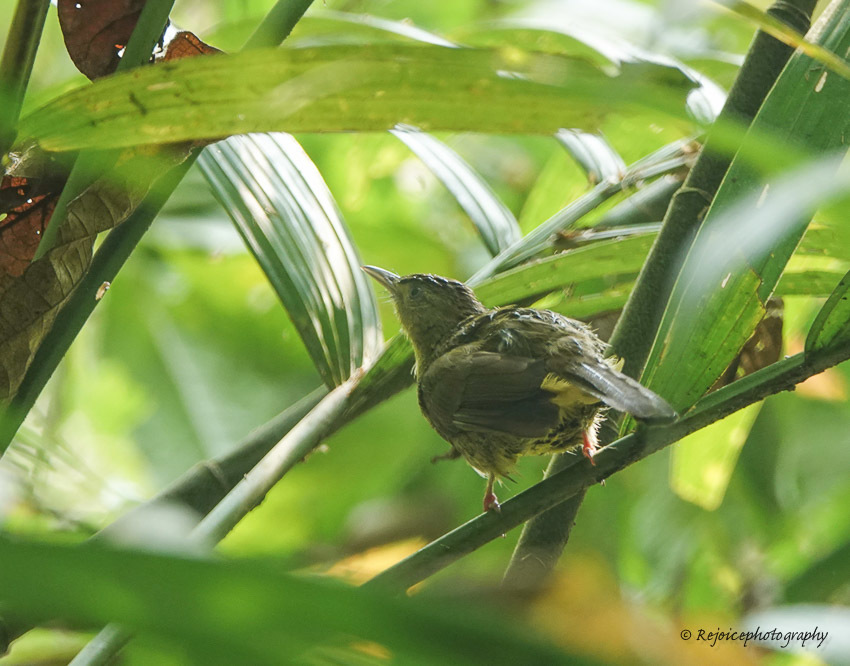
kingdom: Animalia
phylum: Chordata
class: Aves
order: Passeriformes
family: Pycnonotidae
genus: Iole
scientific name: Iole virescens
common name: Olive bulbul
